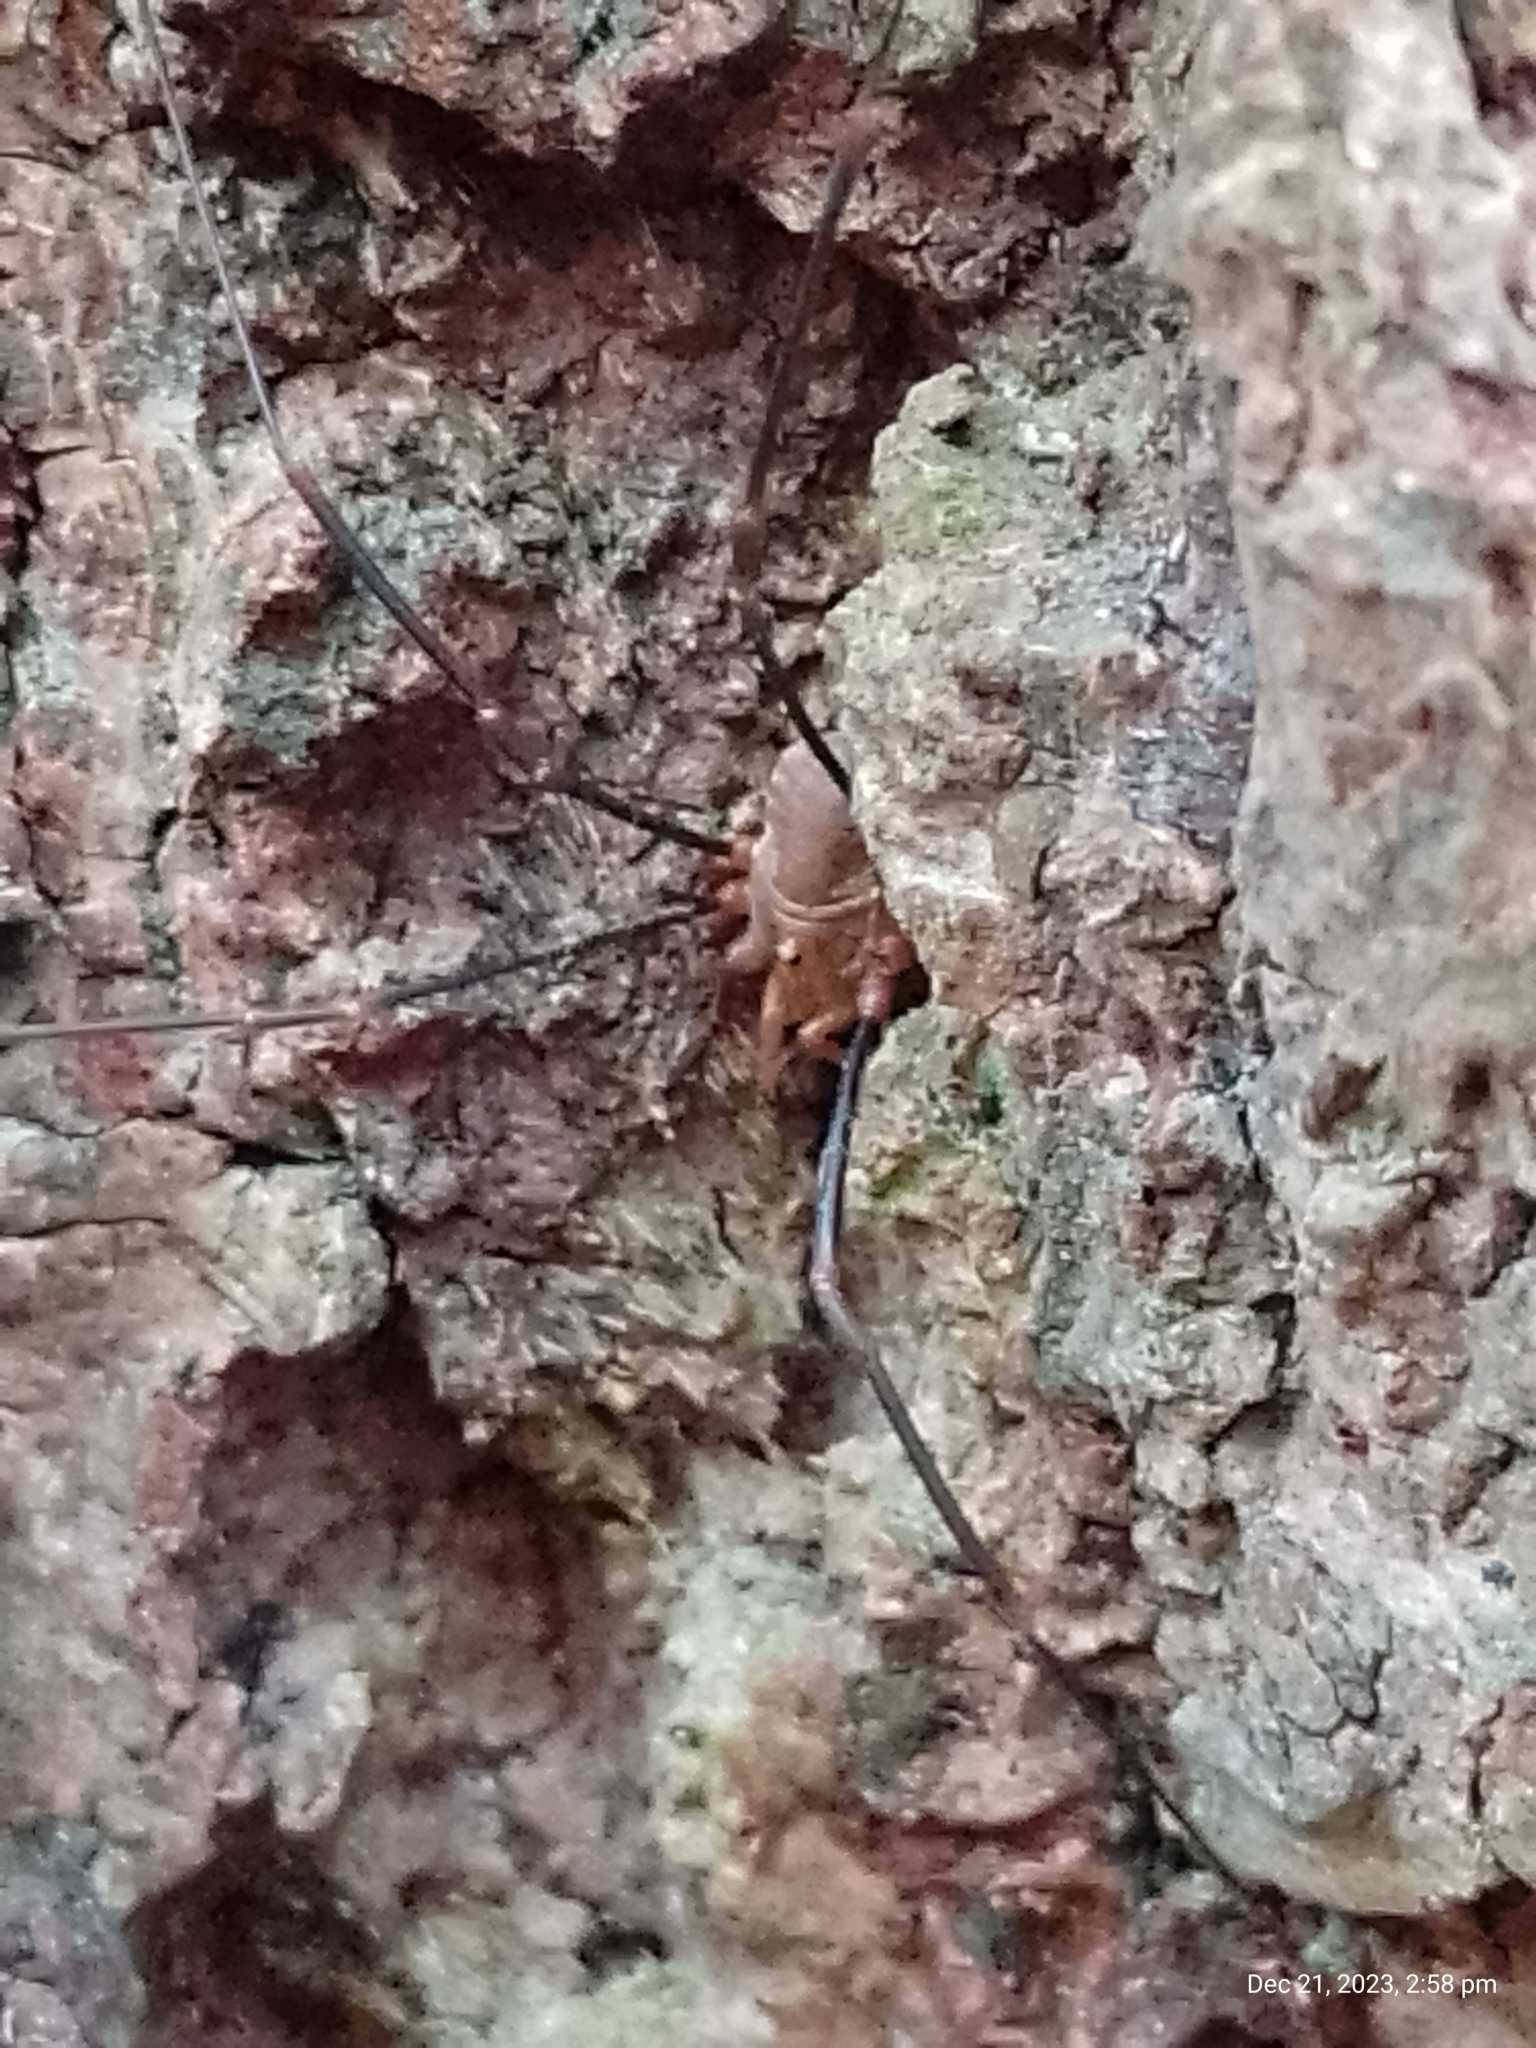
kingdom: Animalia
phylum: Arthropoda
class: Arachnida
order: Opiliones
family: Phalangiidae
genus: Opilio
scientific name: Opilio canestrinii
